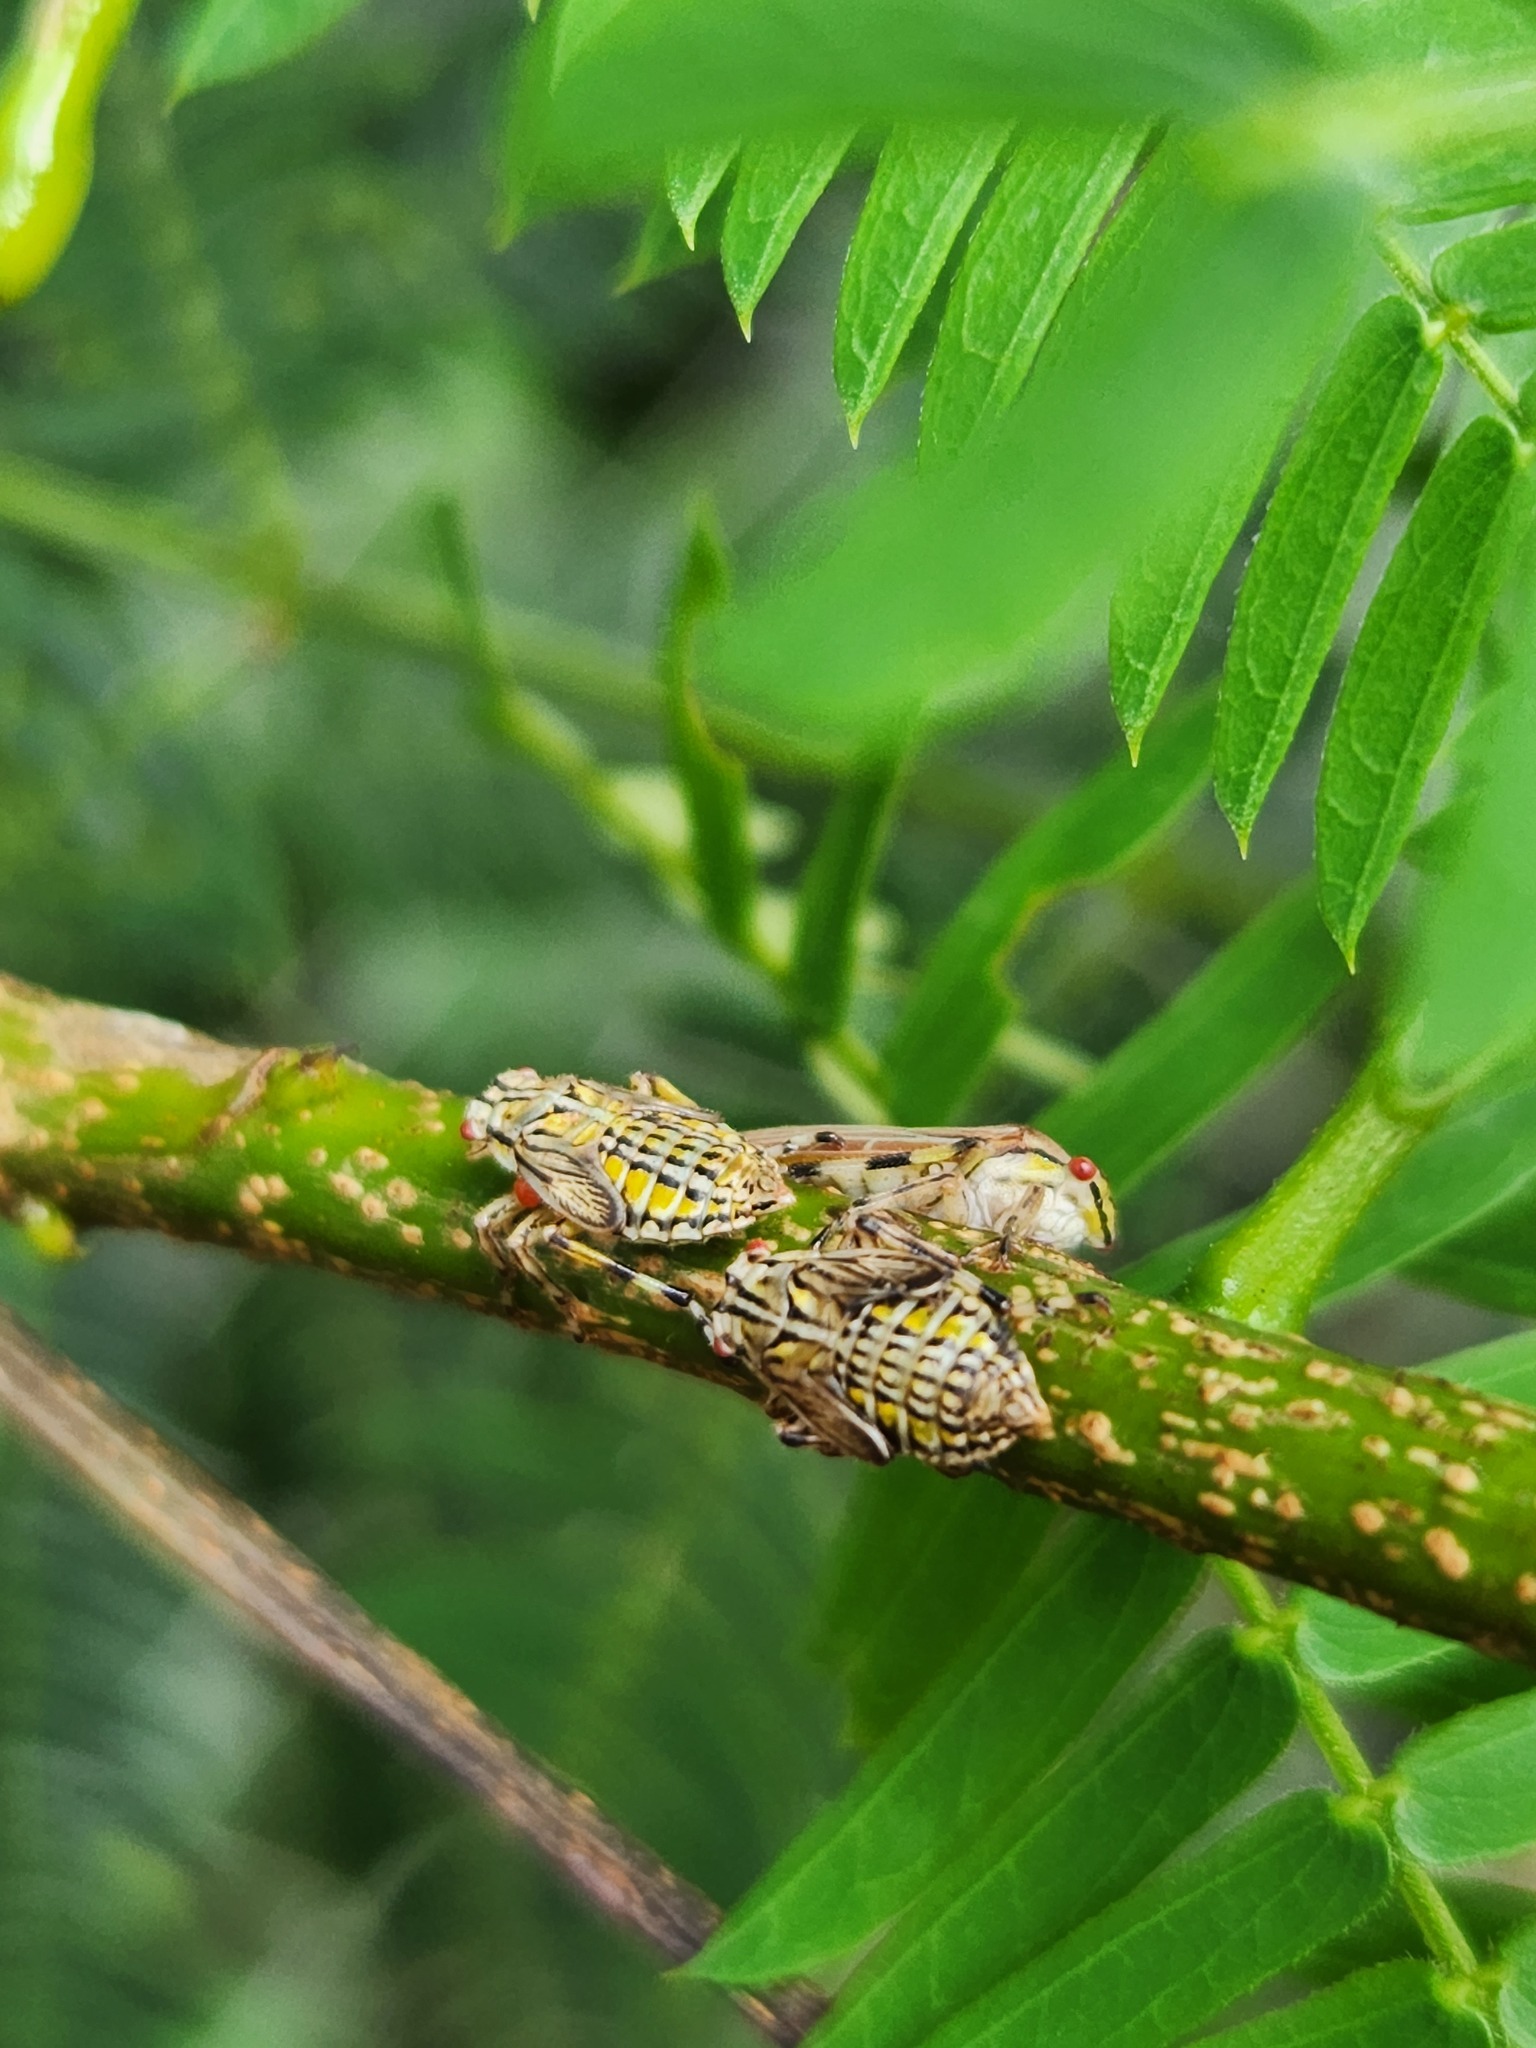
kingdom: Animalia
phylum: Arthropoda
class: Insecta
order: Hemiptera
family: Aetalionidae
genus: Aetalion
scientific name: Aetalion reticulatum
